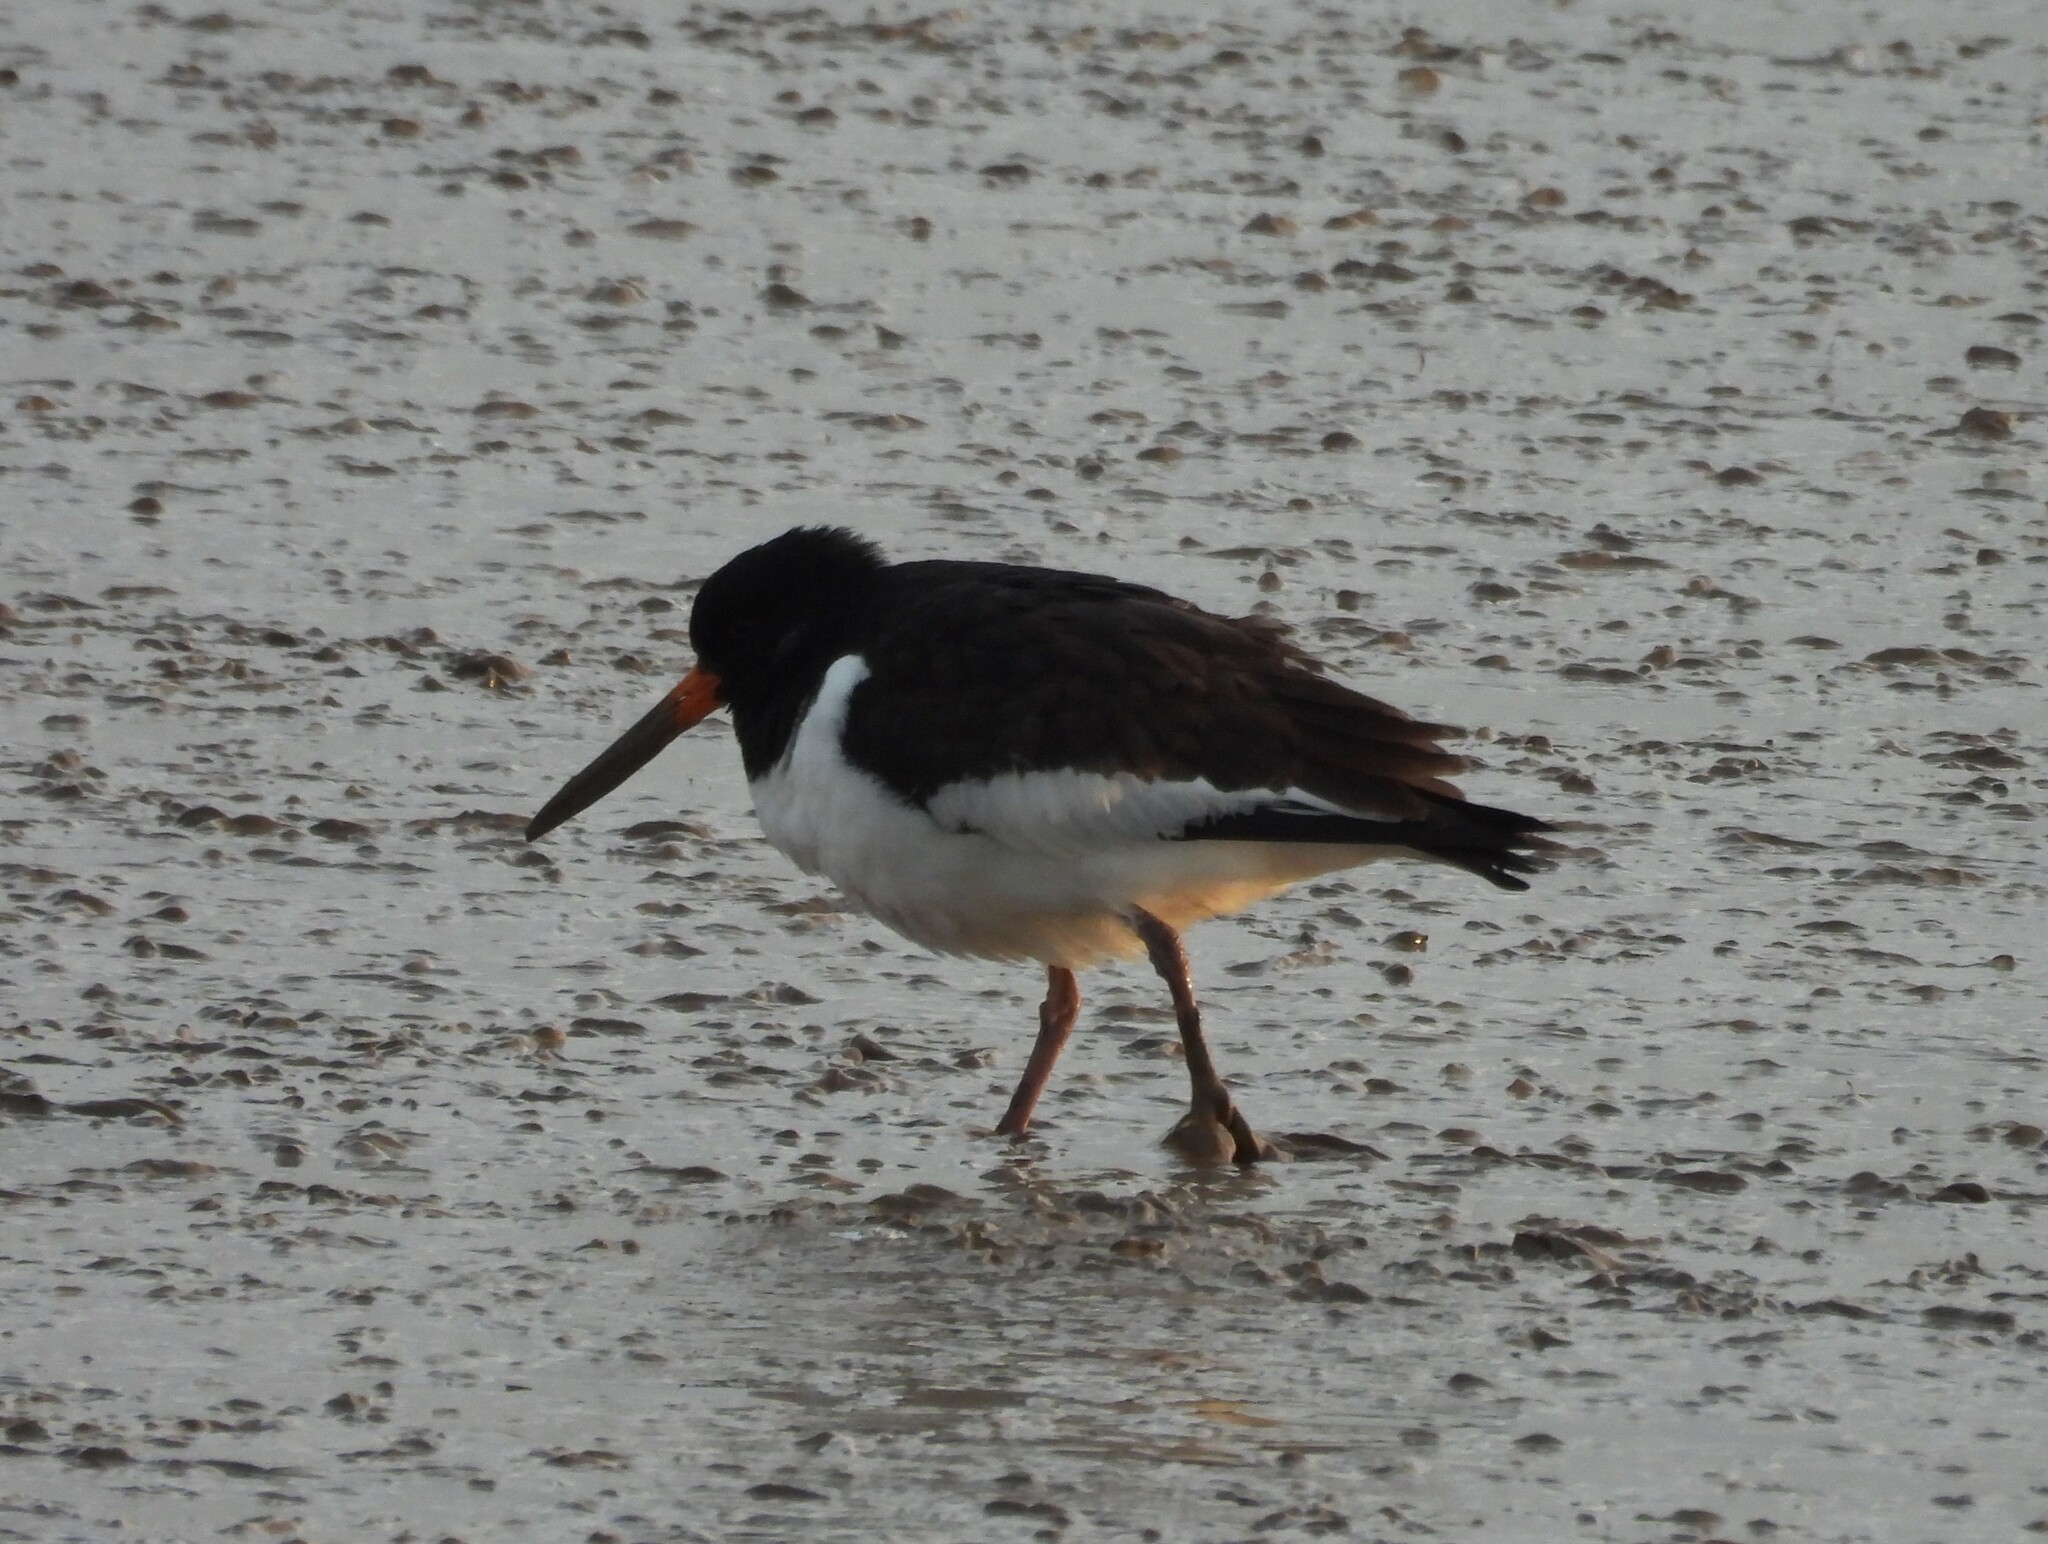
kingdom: Animalia
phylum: Chordata
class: Aves
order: Charadriiformes
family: Haematopodidae
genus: Haematopus
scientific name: Haematopus ostralegus
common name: Eurasian oystercatcher
